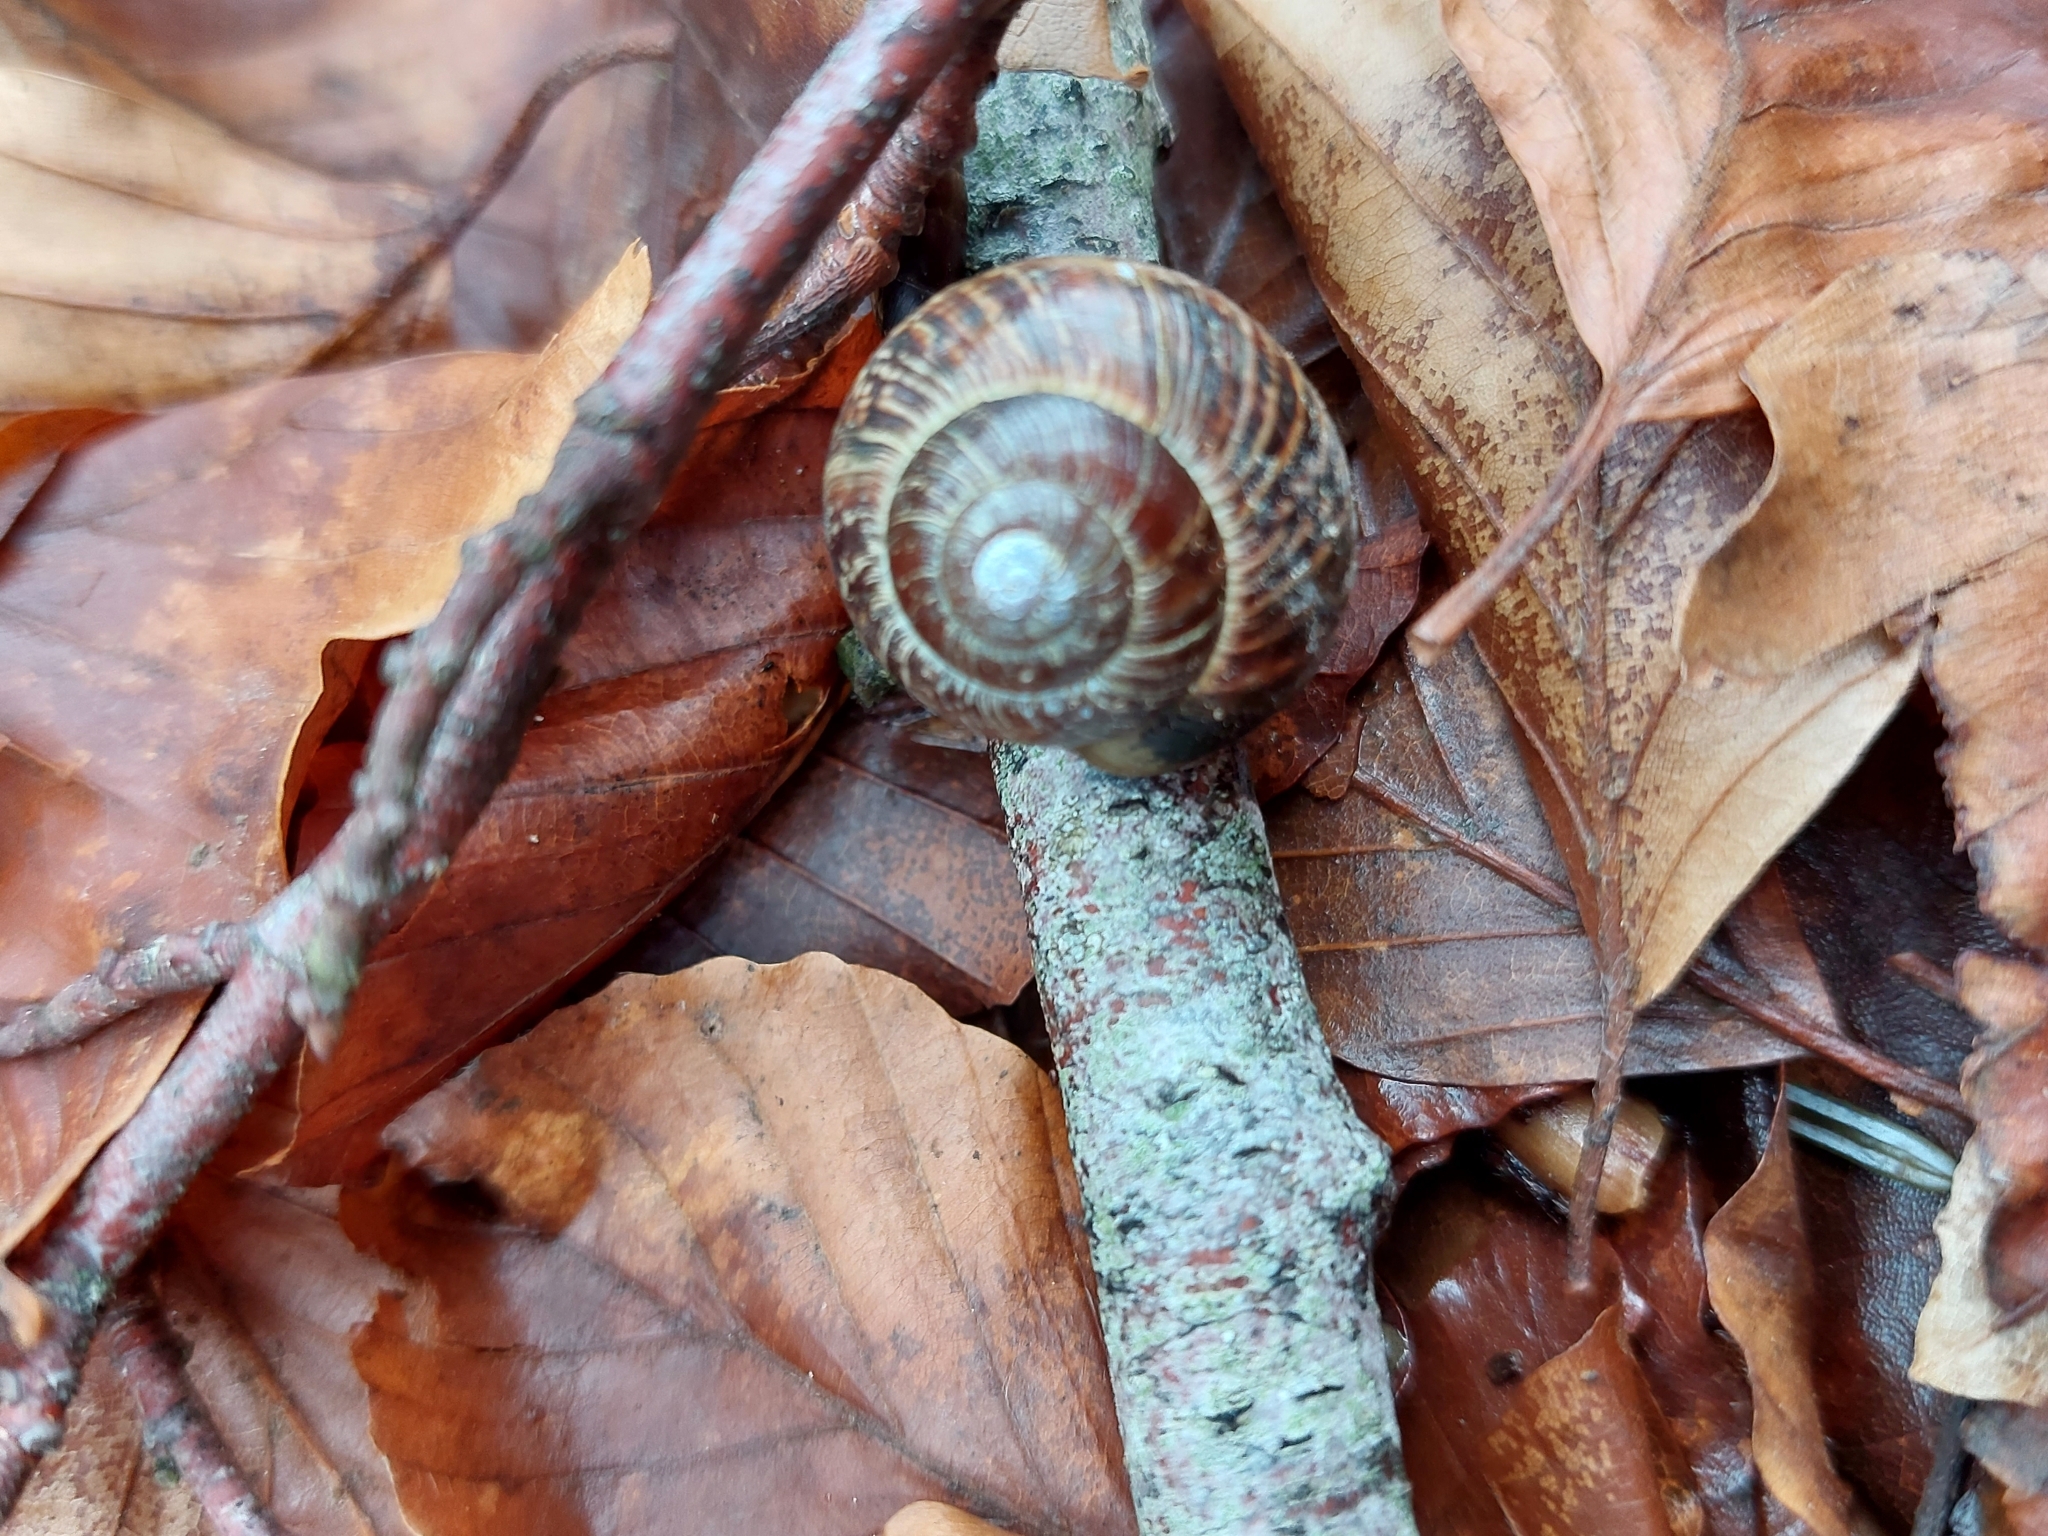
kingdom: Animalia
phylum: Mollusca
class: Gastropoda
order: Stylommatophora
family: Helicidae
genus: Arianta
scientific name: Arianta arbustorum
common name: Copse snail
